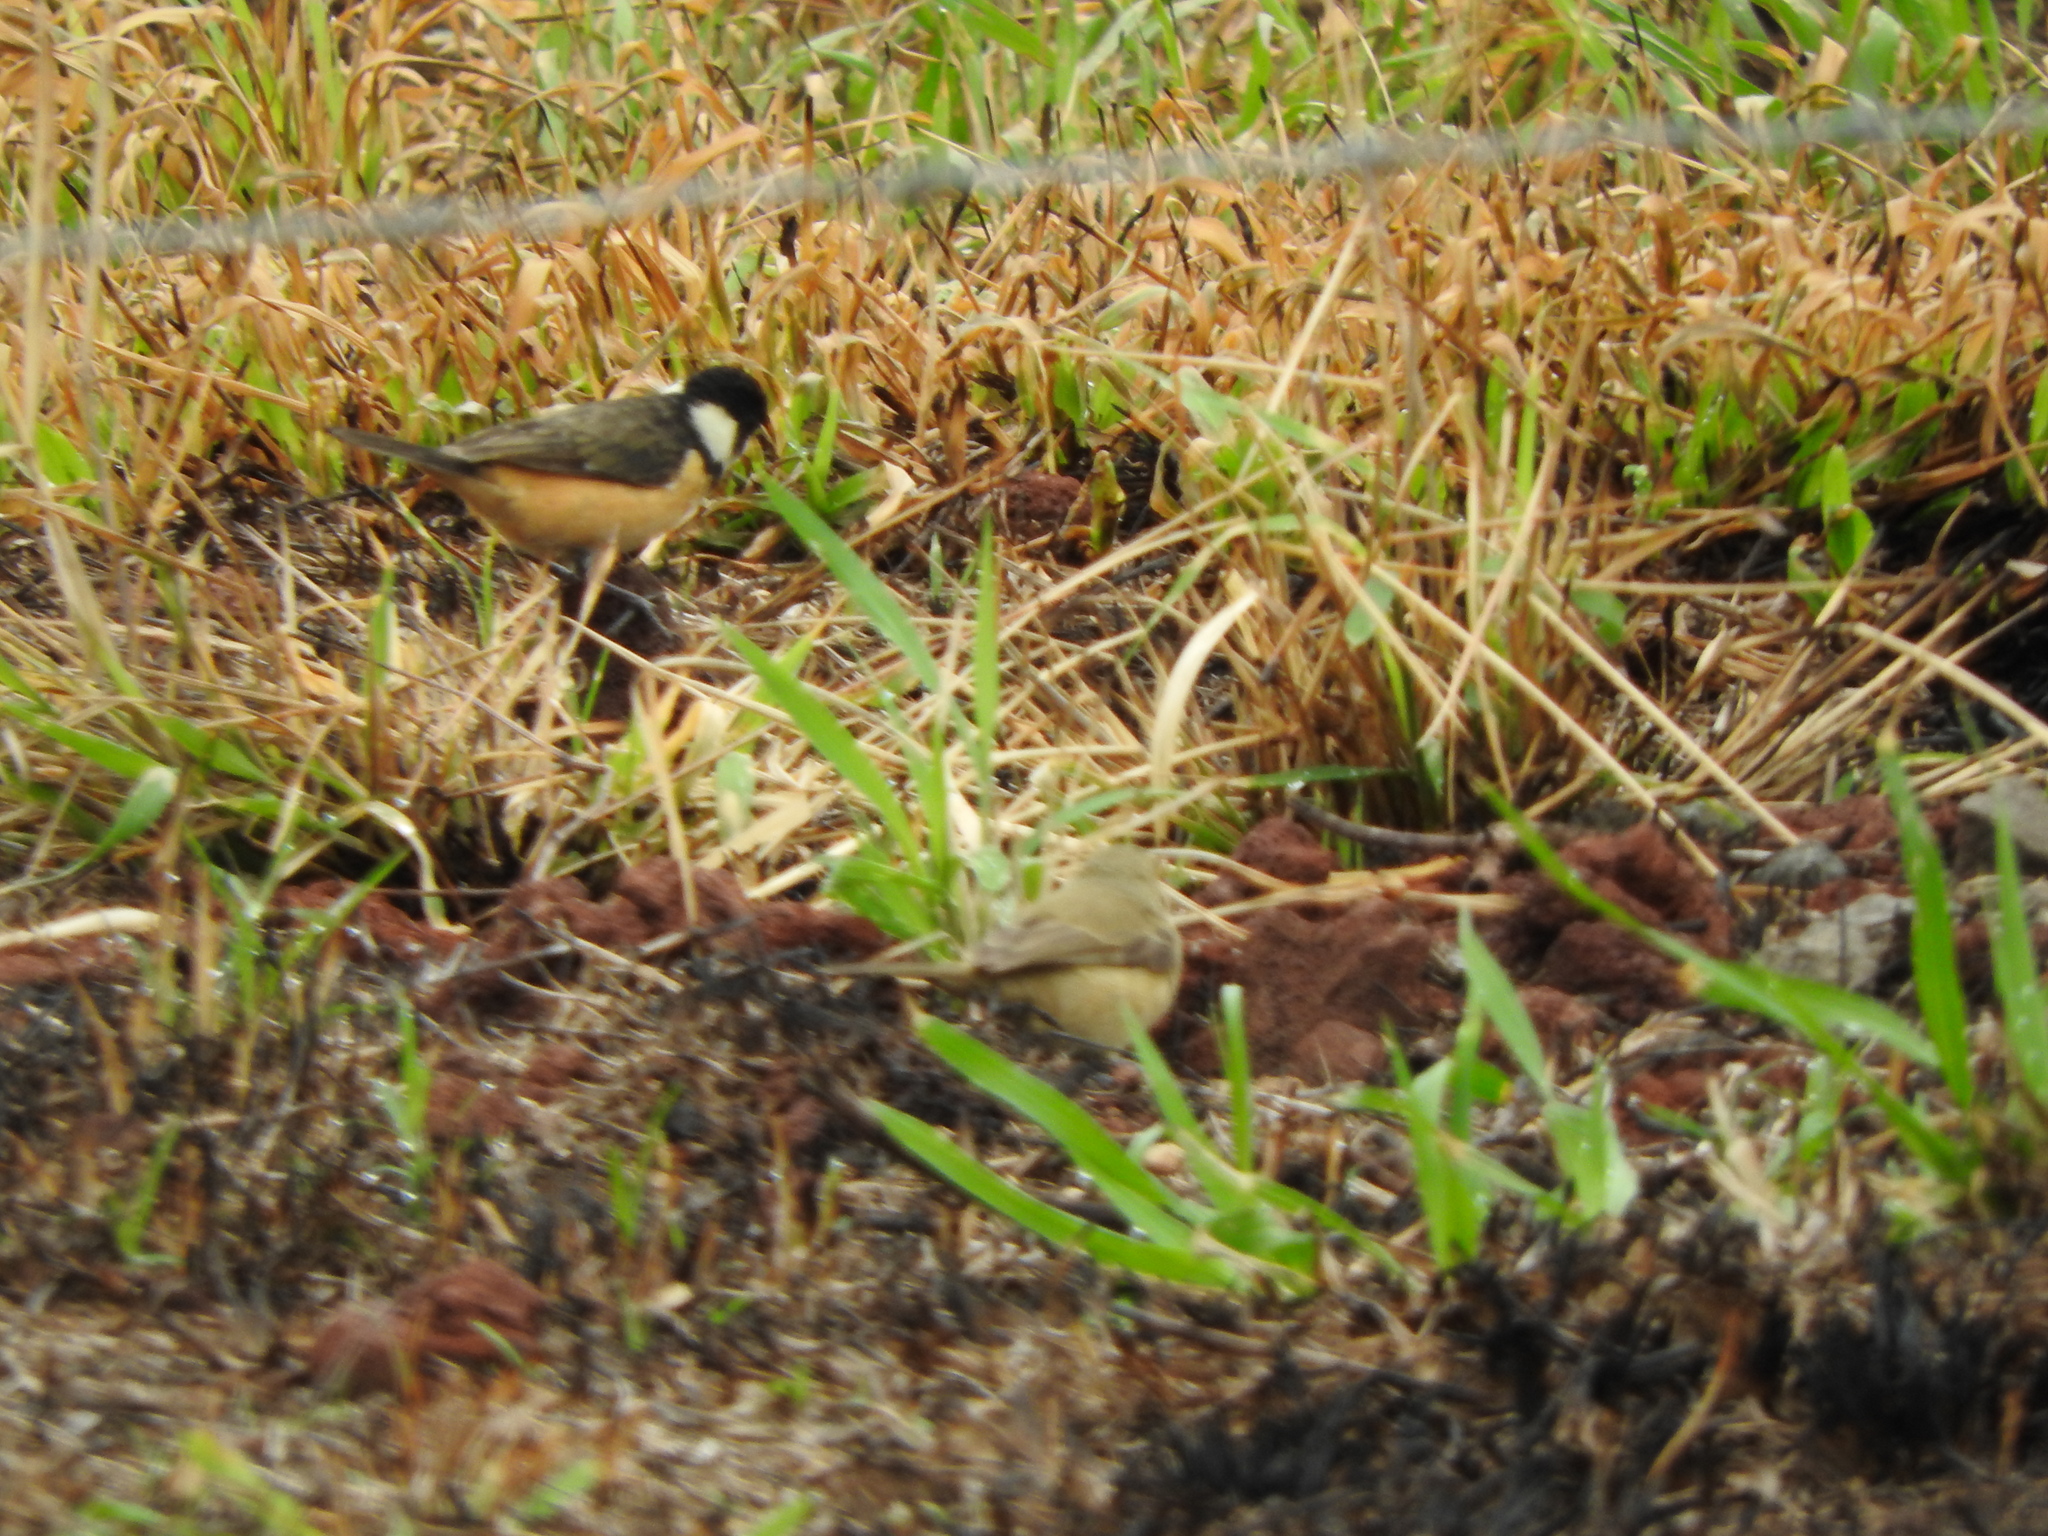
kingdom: Animalia
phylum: Chordata
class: Aves
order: Passeriformes
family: Thraupidae
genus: Sporophila
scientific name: Sporophila torqueola
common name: White-collared seedeater
